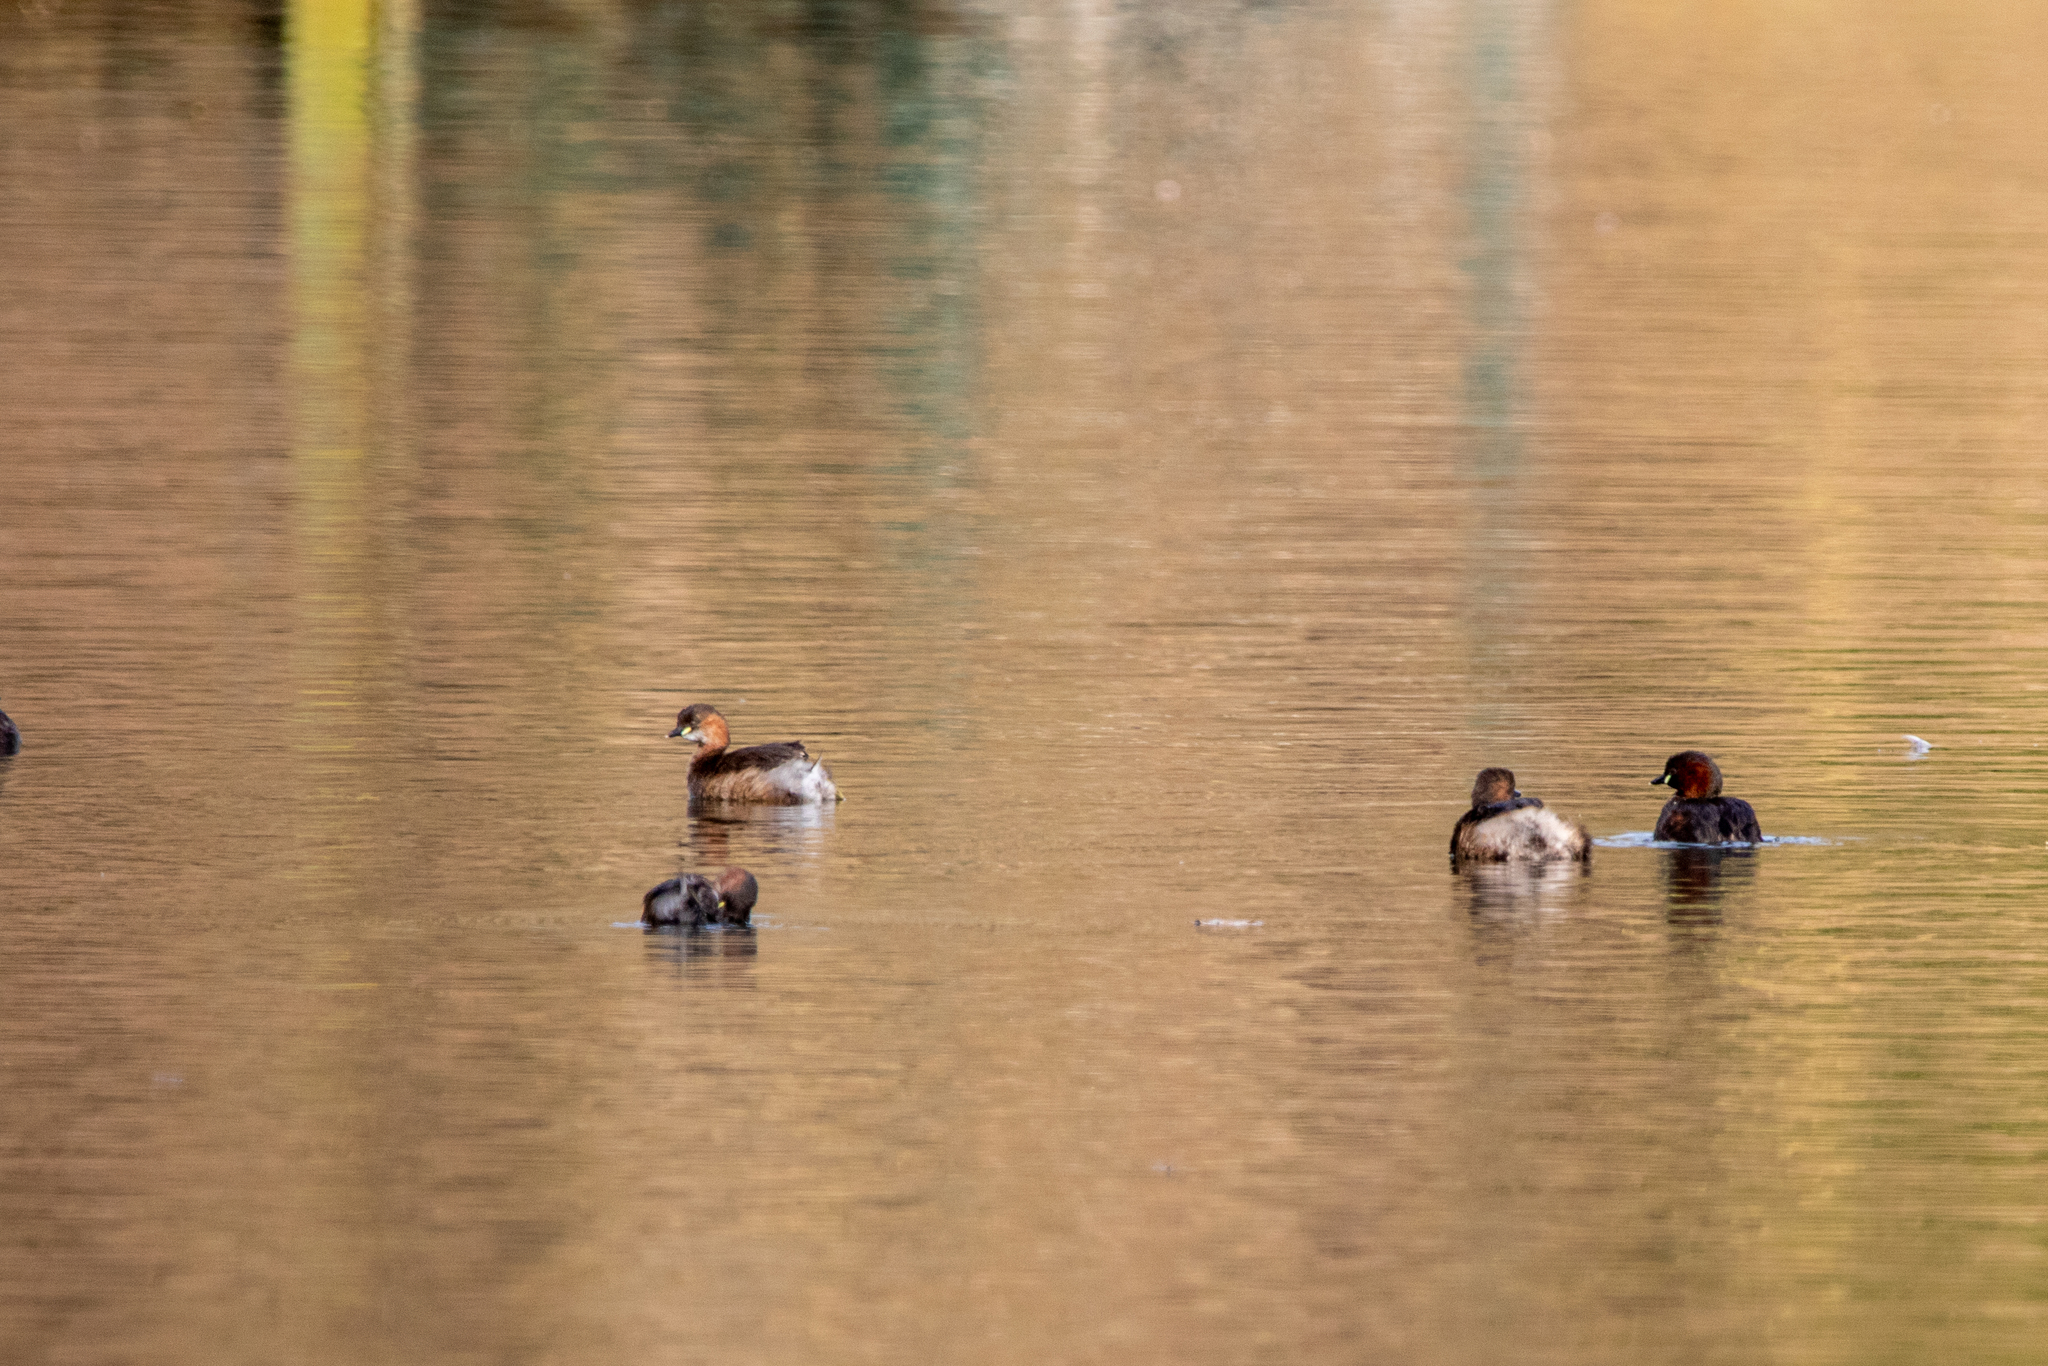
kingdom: Animalia
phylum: Chordata
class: Aves
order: Podicipediformes
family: Podicipedidae
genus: Tachybaptus
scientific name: Tachybaptus ruficollis
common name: Little grebe
